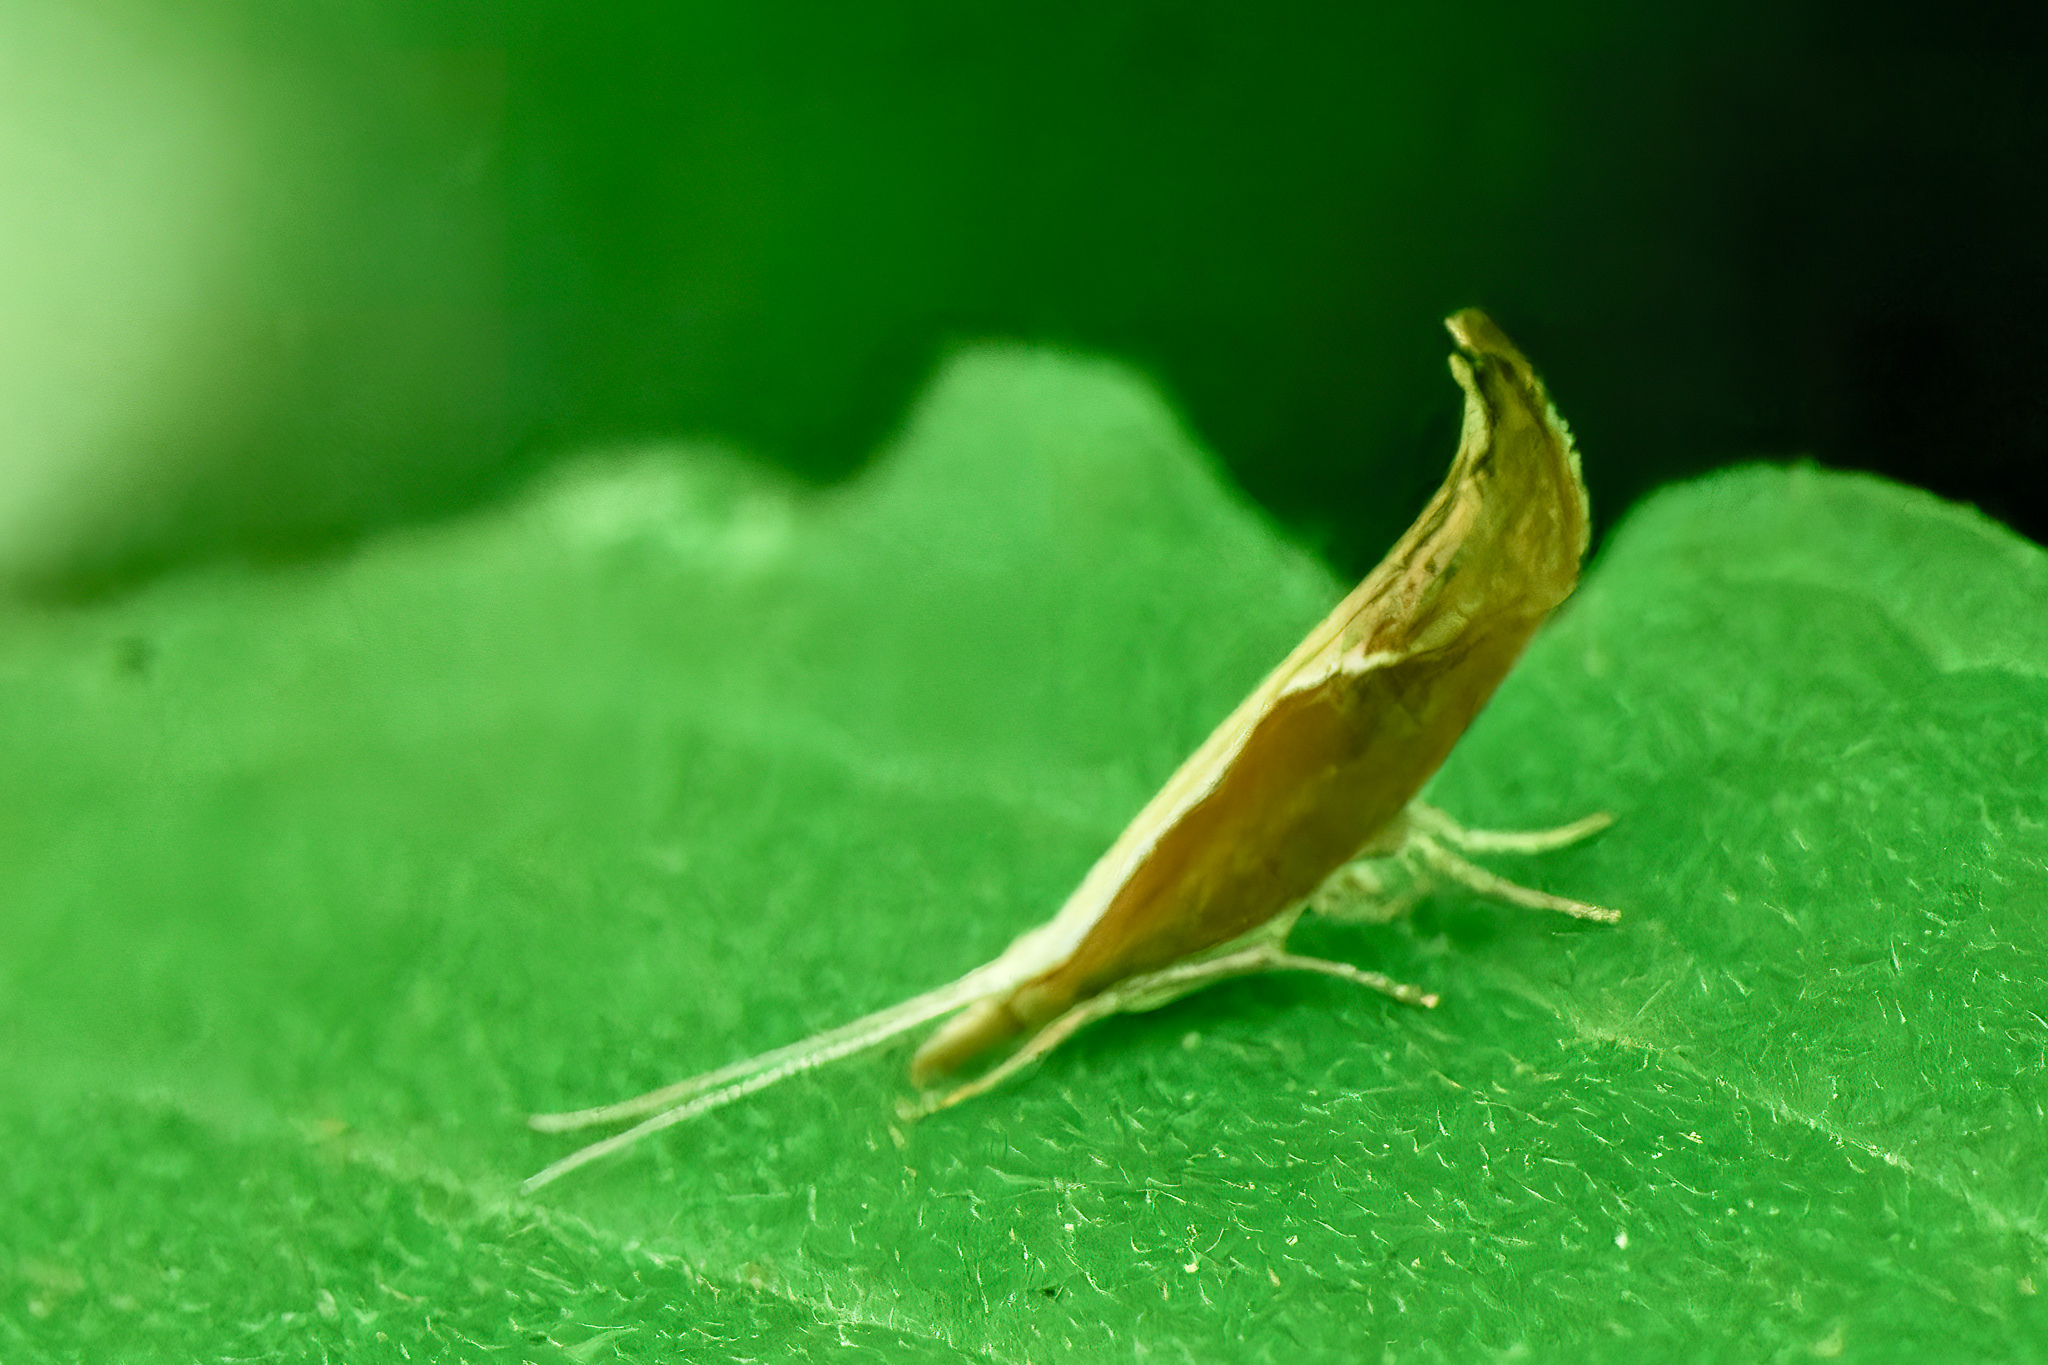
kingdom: Animalia
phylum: Arthropoda
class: Insecta
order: Lepidoptera
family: Ypsolophidae
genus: Ypsolopha
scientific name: Ypsolopha dentella
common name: Honeysuckle moth
